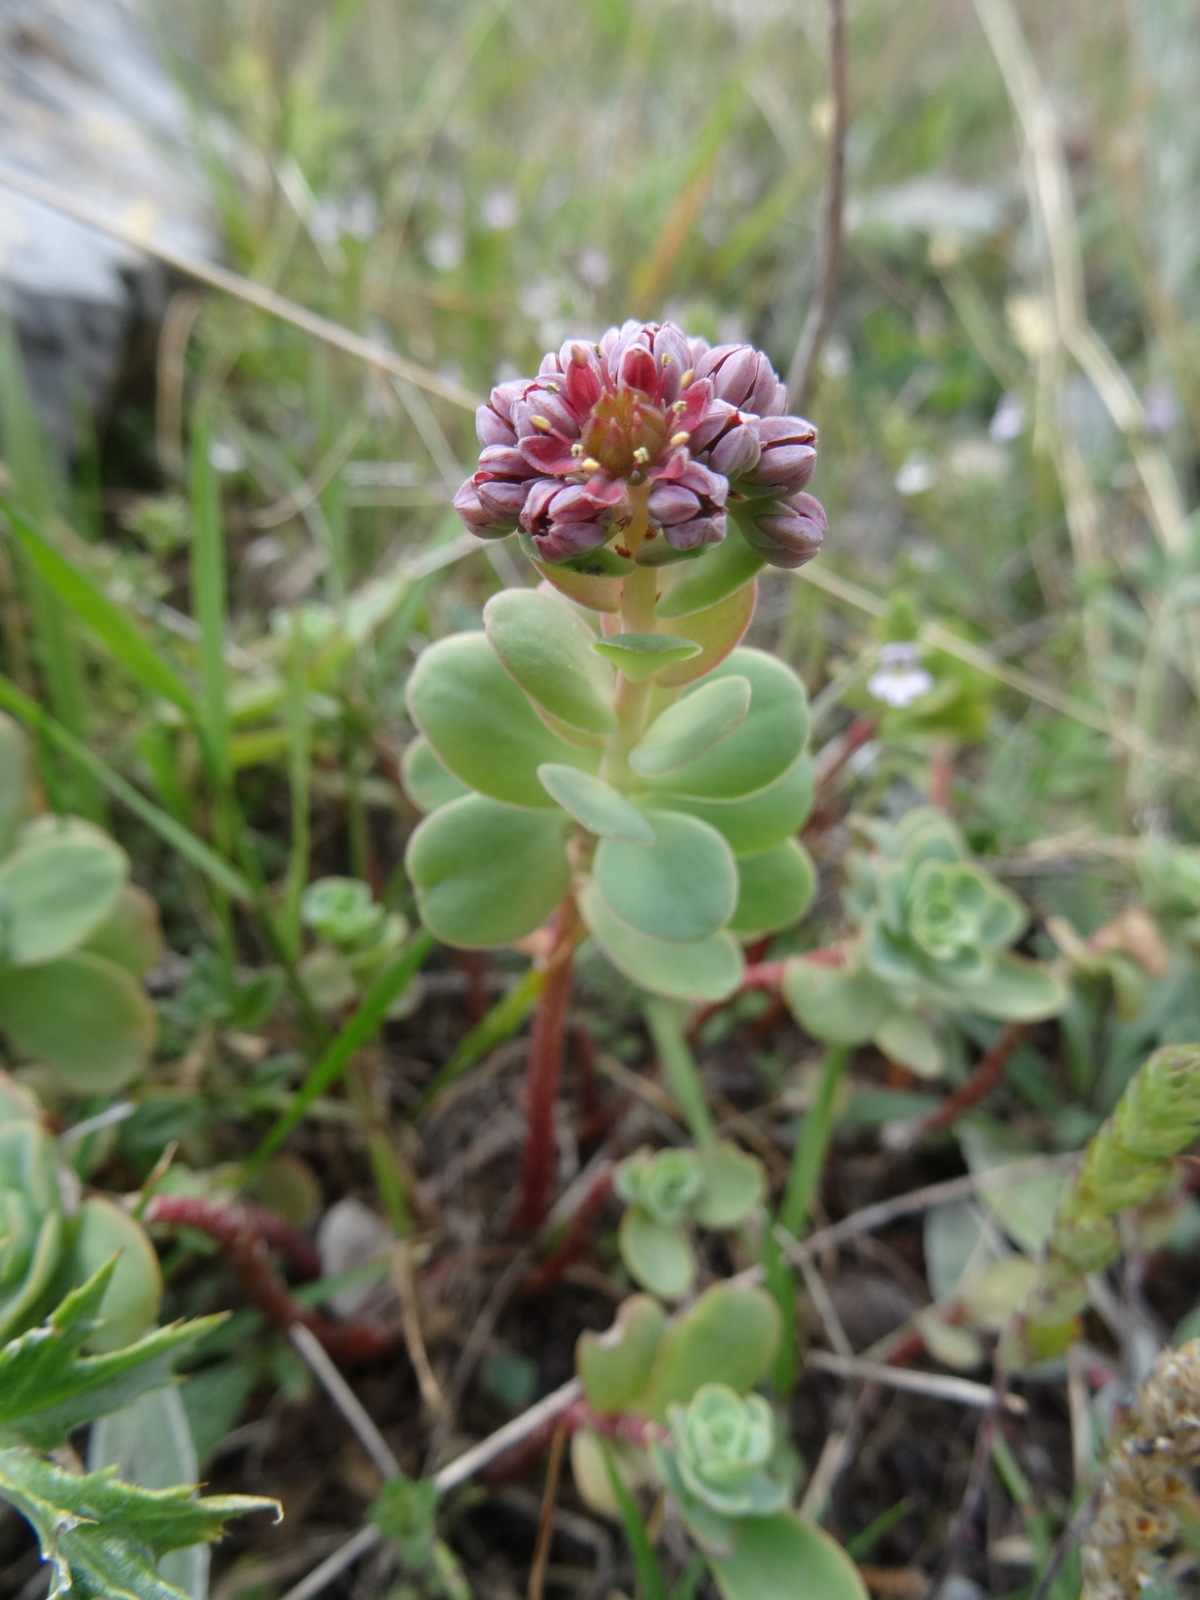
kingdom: Plantae
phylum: Tracheophyta
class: Magnoliopsida
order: Saxifragales
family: Crassulaceae
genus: Hylotelephium
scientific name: Hylotelephium anacampseros
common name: Love-restorer
